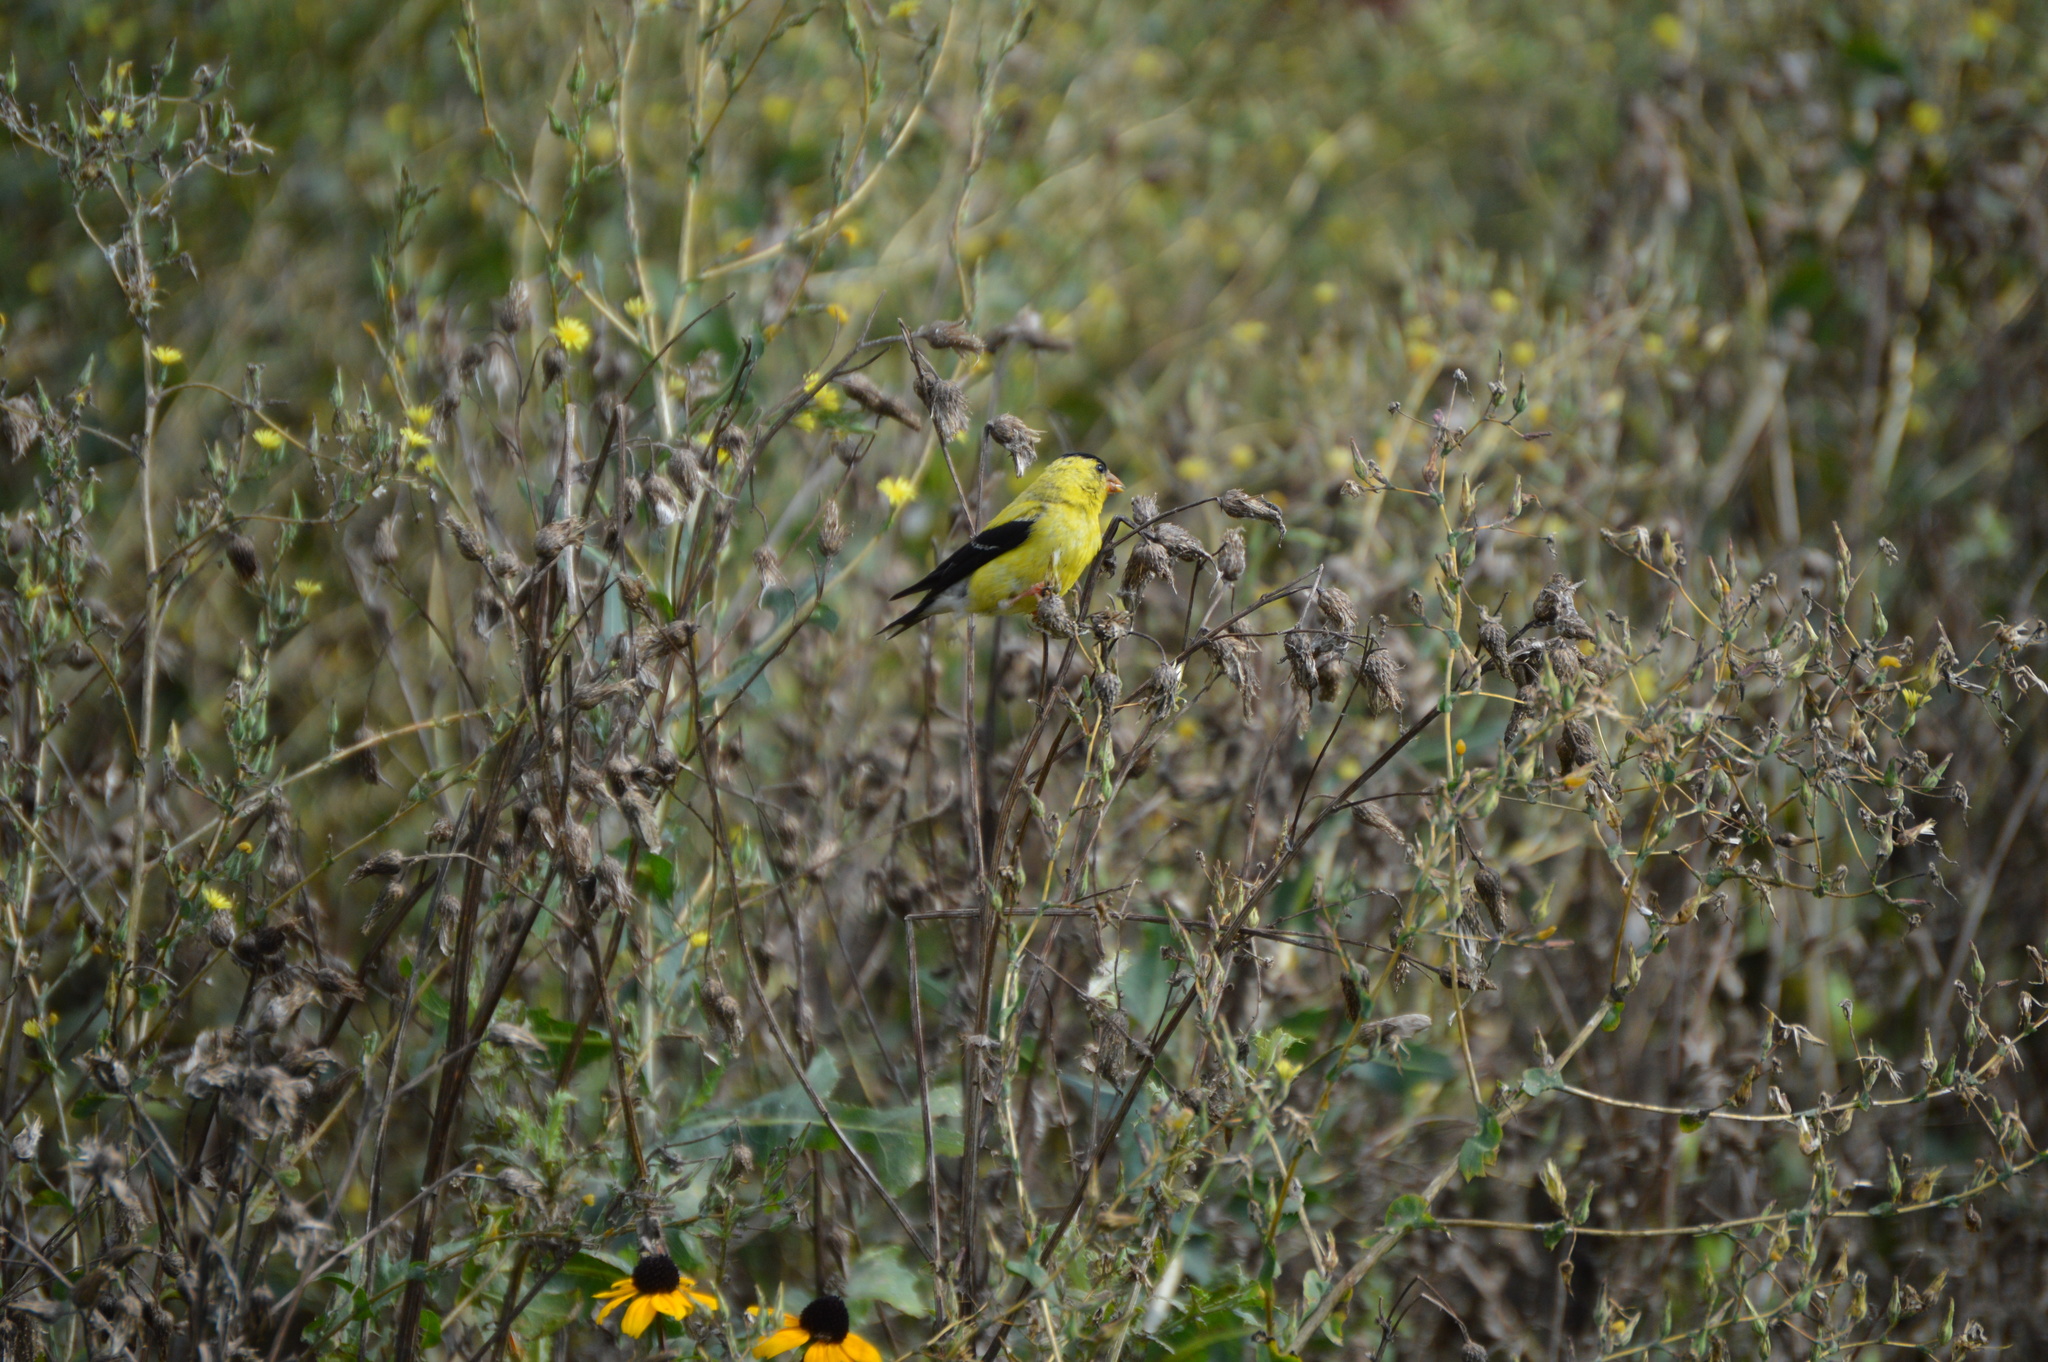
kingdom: Animalia
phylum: Chordata
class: Aves
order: Passeriformes
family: Fringillidae
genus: Spinus
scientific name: Spinus tristis
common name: American goldfinch
